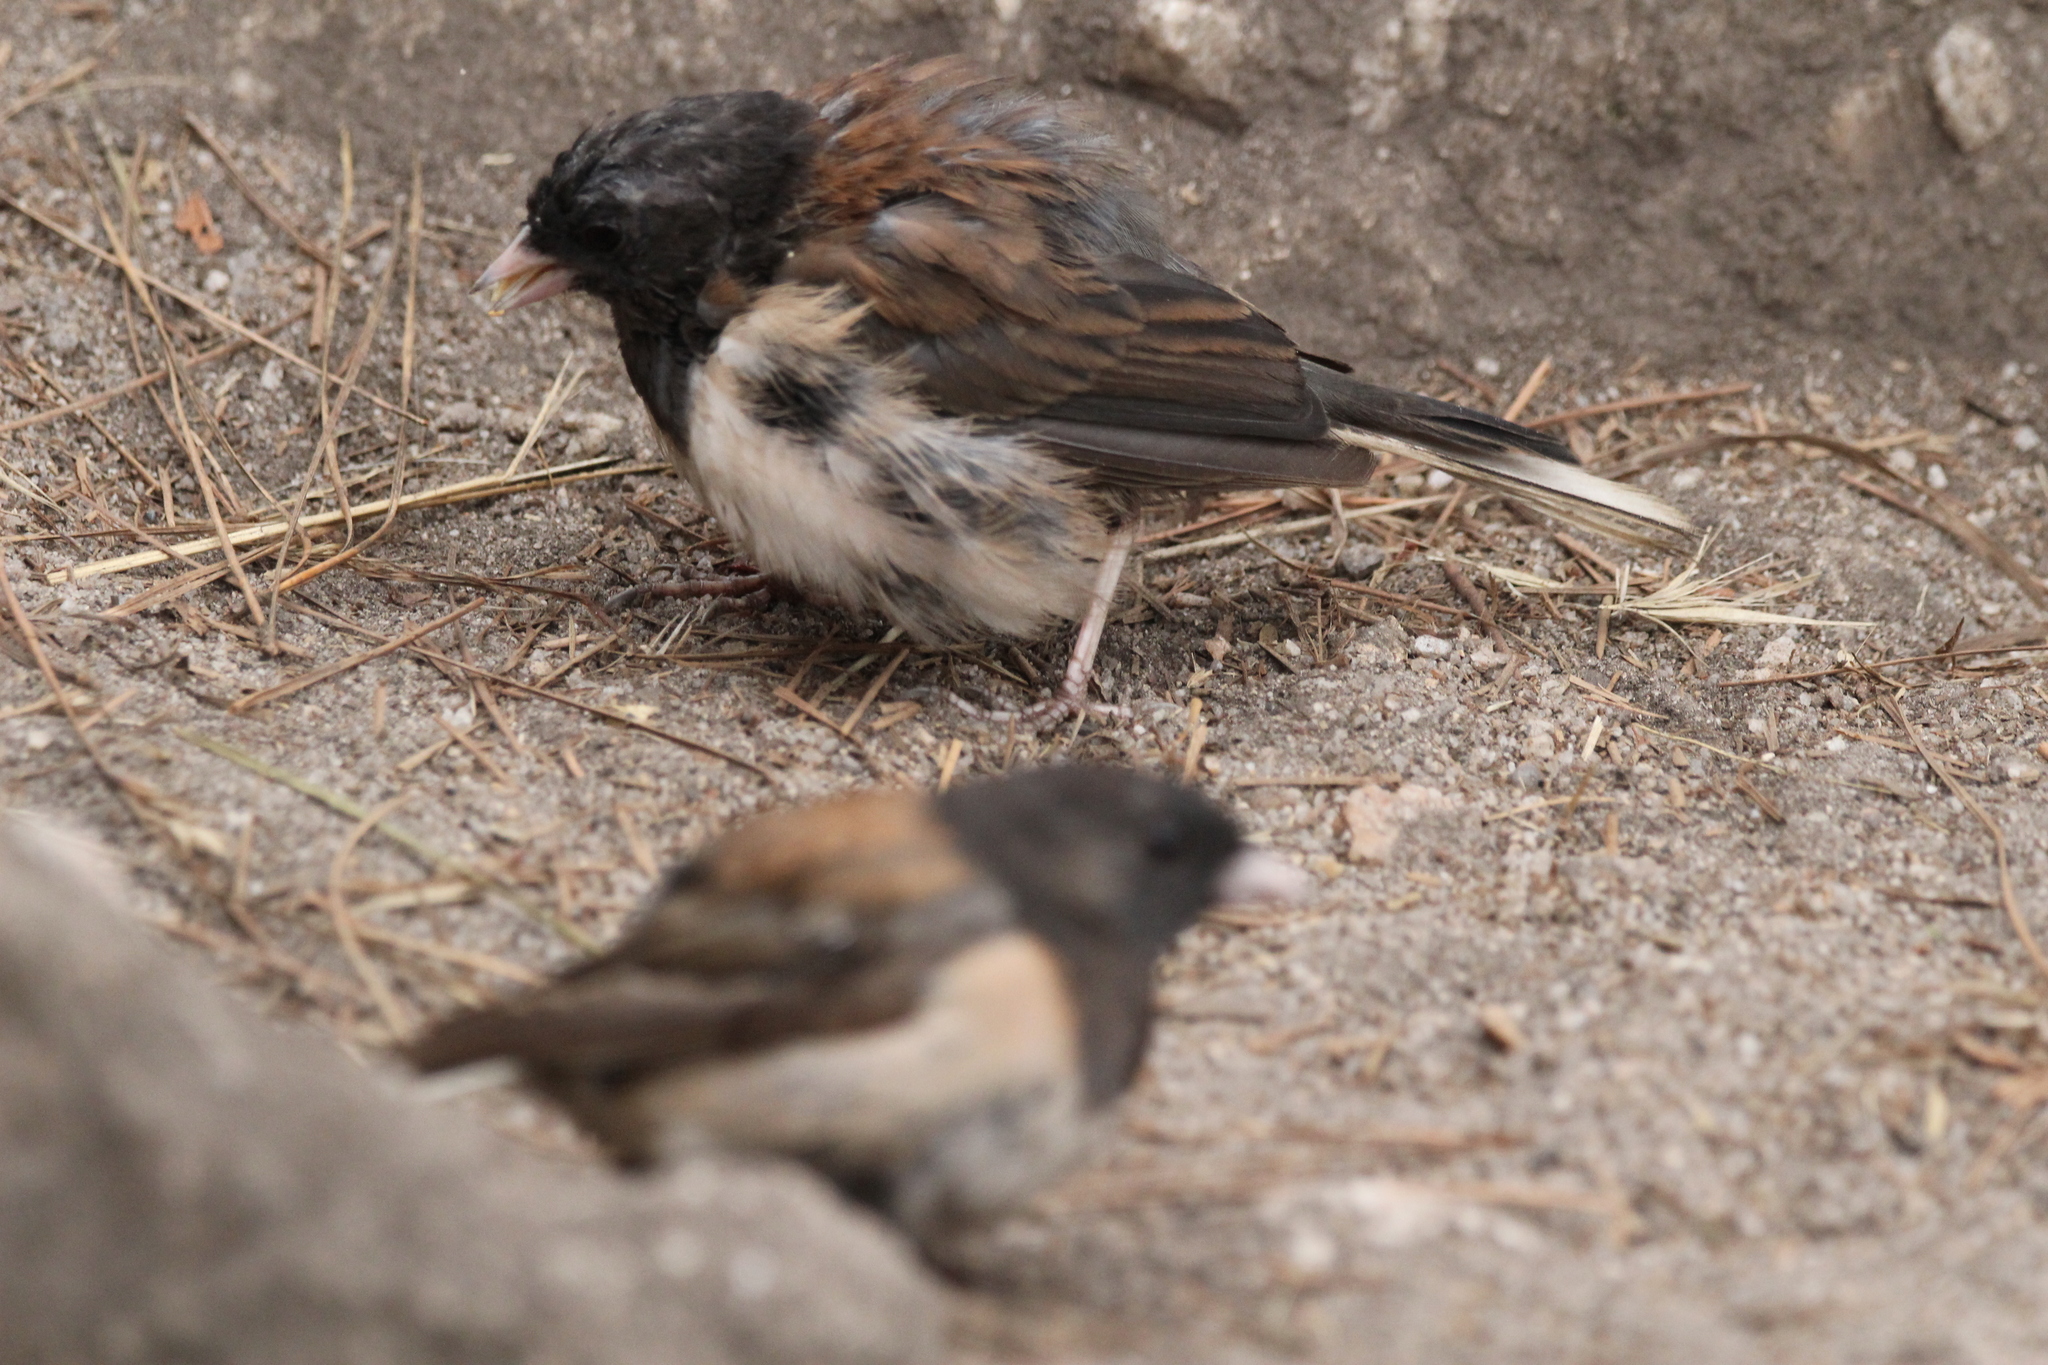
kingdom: Animalia
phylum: Chordata
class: Aves
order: Passeriformes
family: Passerellidae
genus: Junco
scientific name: Junco hyemalis
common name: Dark-eyed junco
